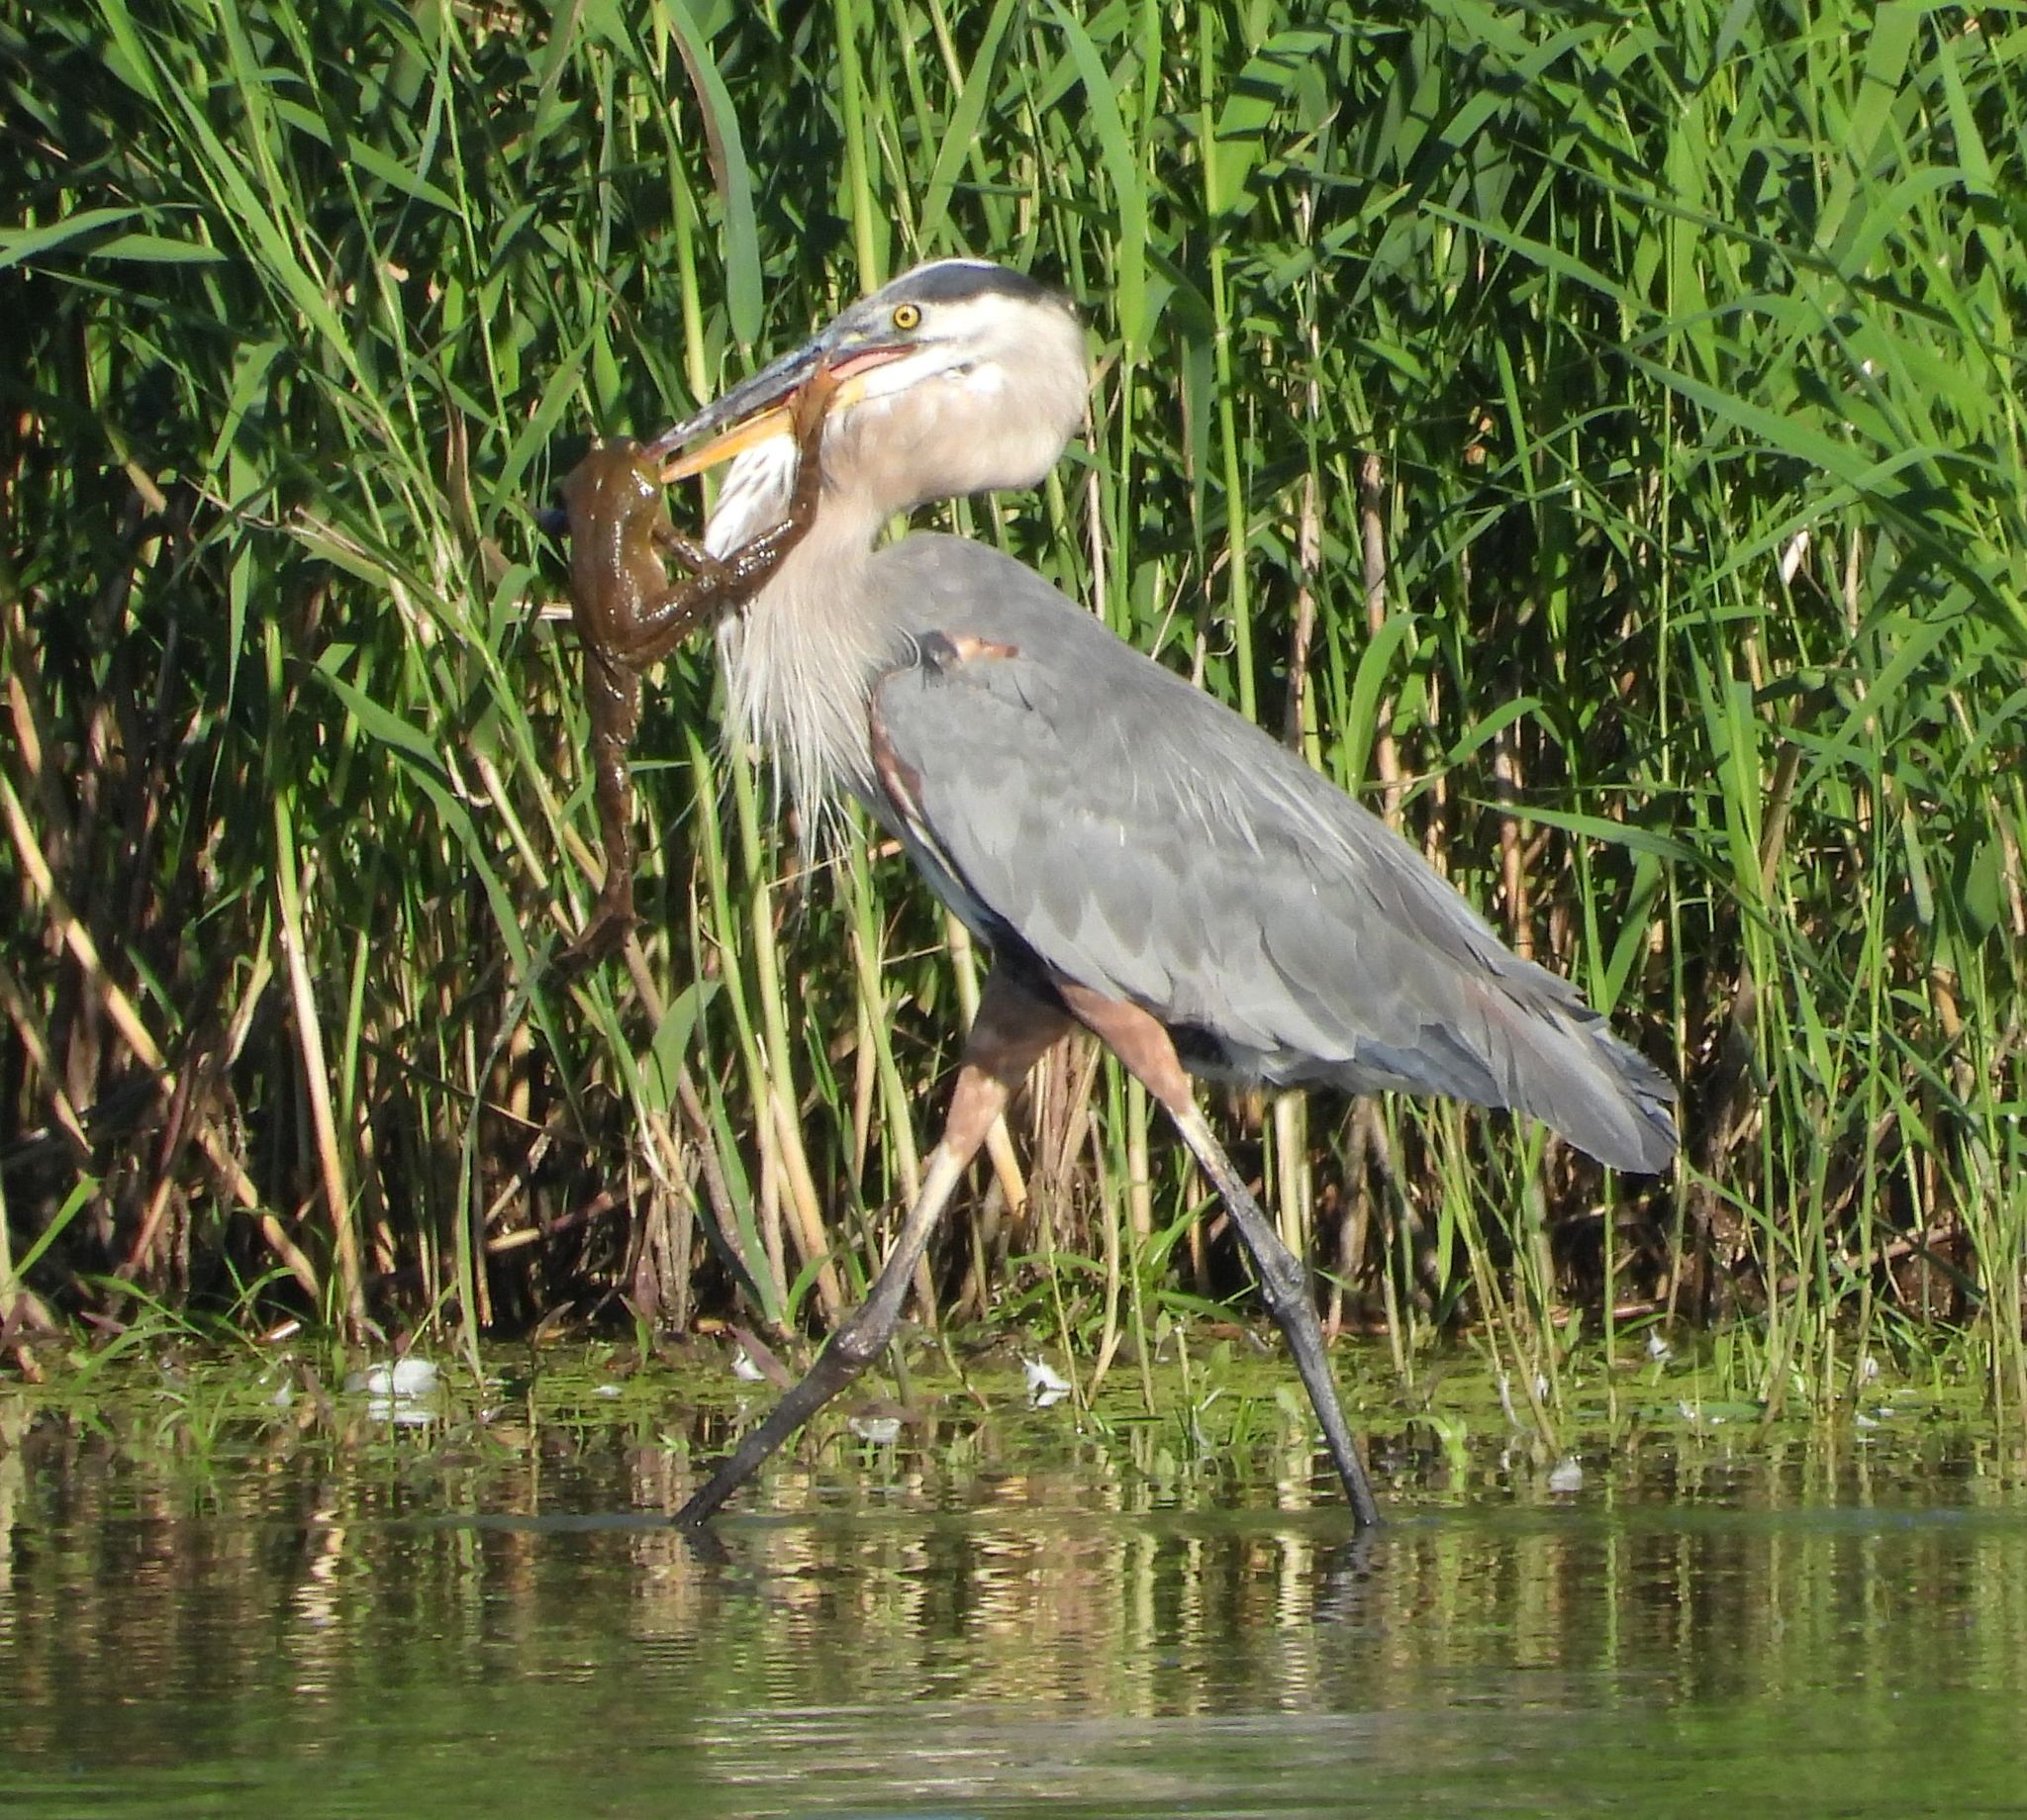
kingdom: Animalia
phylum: Chordata
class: Aves
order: Pelecaniformes
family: Ardeidae
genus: Ardea
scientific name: Ardea herodias
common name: Great blue heron
